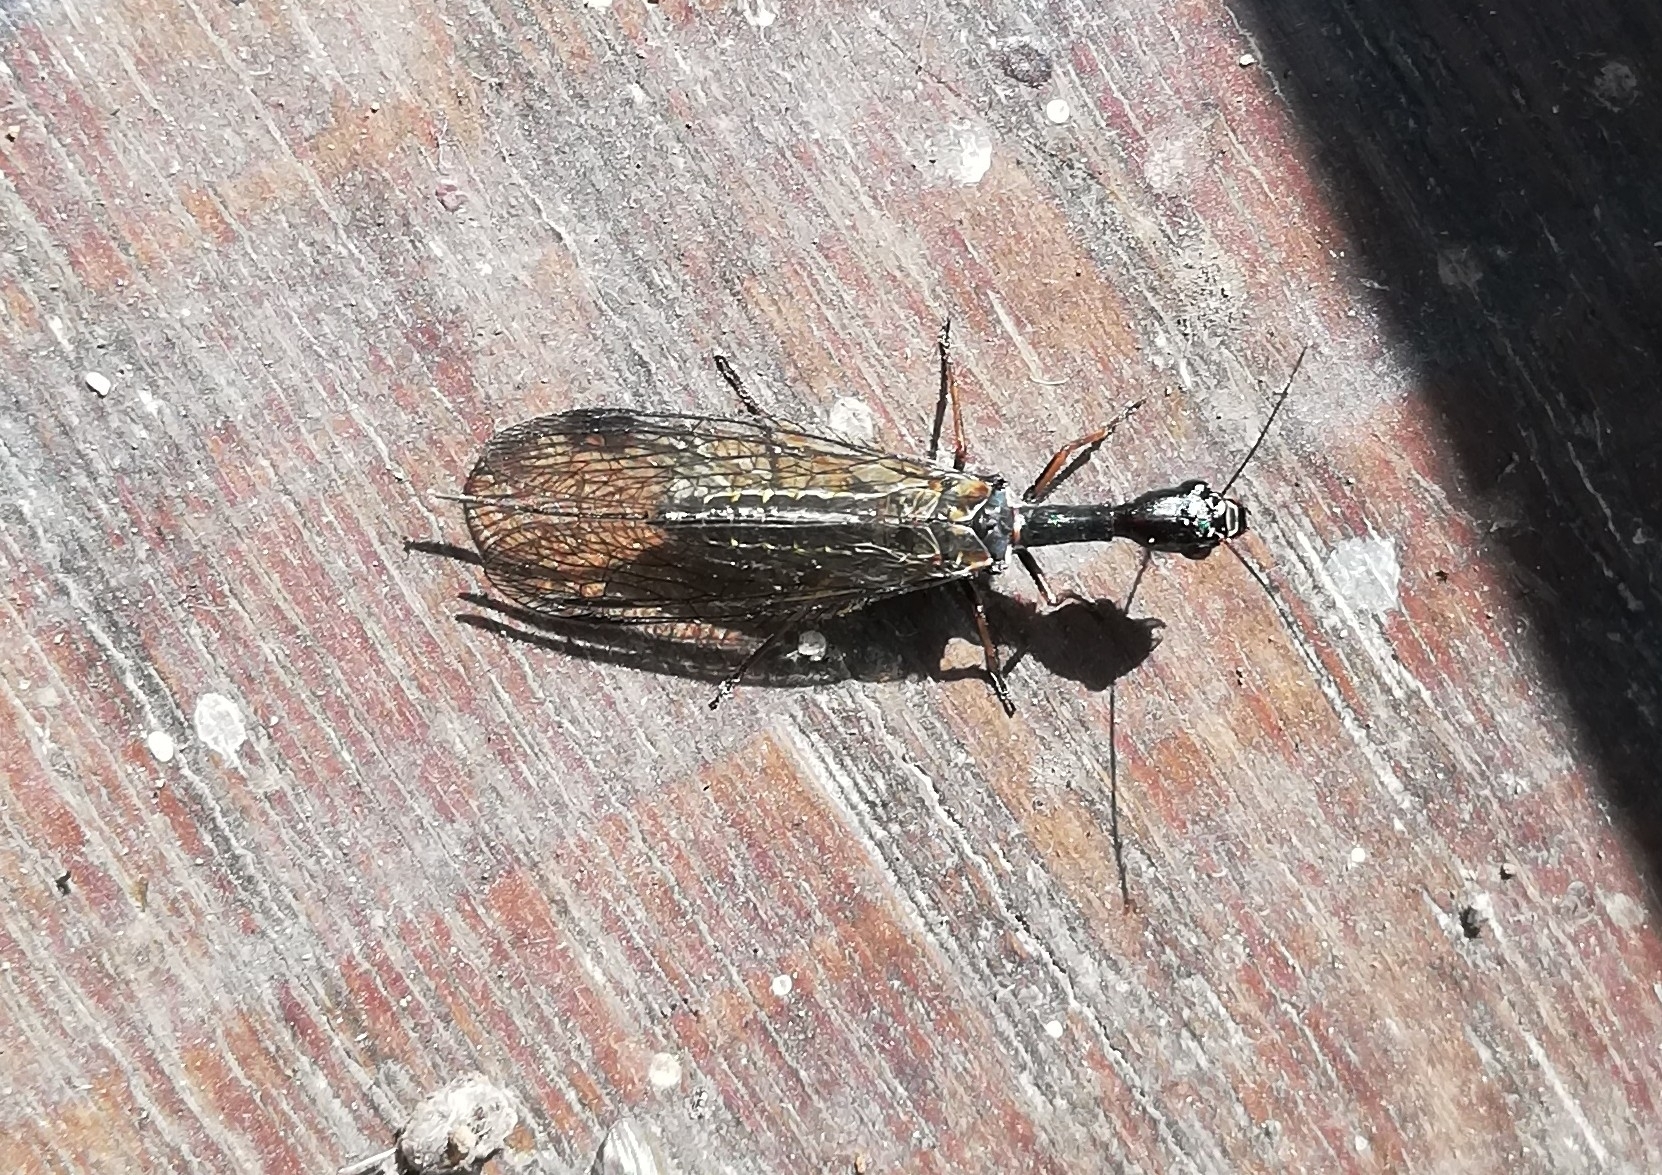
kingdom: Animalia
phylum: Arthropoda
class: Insecta
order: Raphidioptera
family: Raphidiidae
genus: Phaeostigma
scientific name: Phaeostigma notatum
